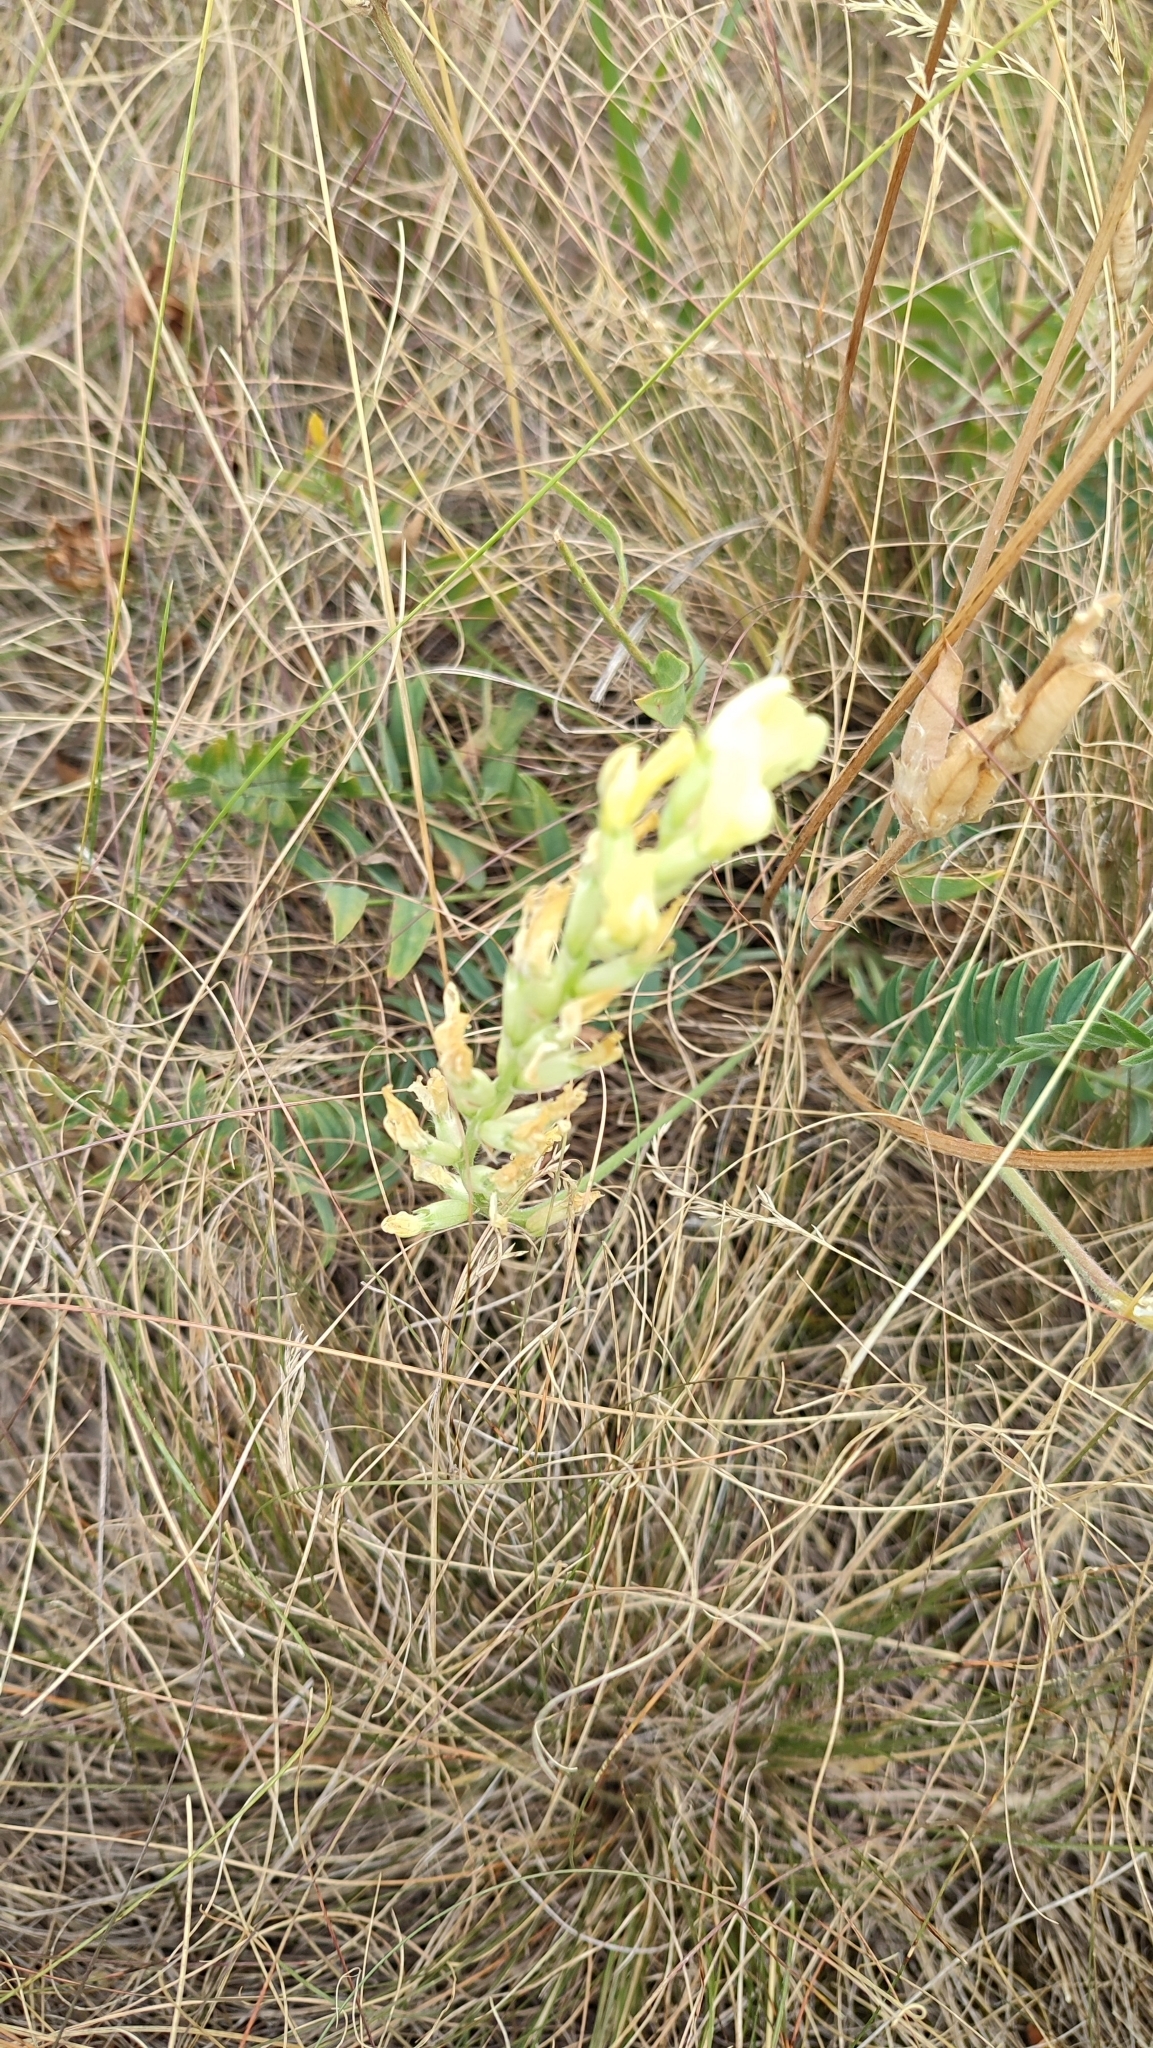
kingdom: Plantae
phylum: Tracheophyta
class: Magnoliopsida
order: Fabales
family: Fabaceae
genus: Oxytropis
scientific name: Oxytropis hippolyti
